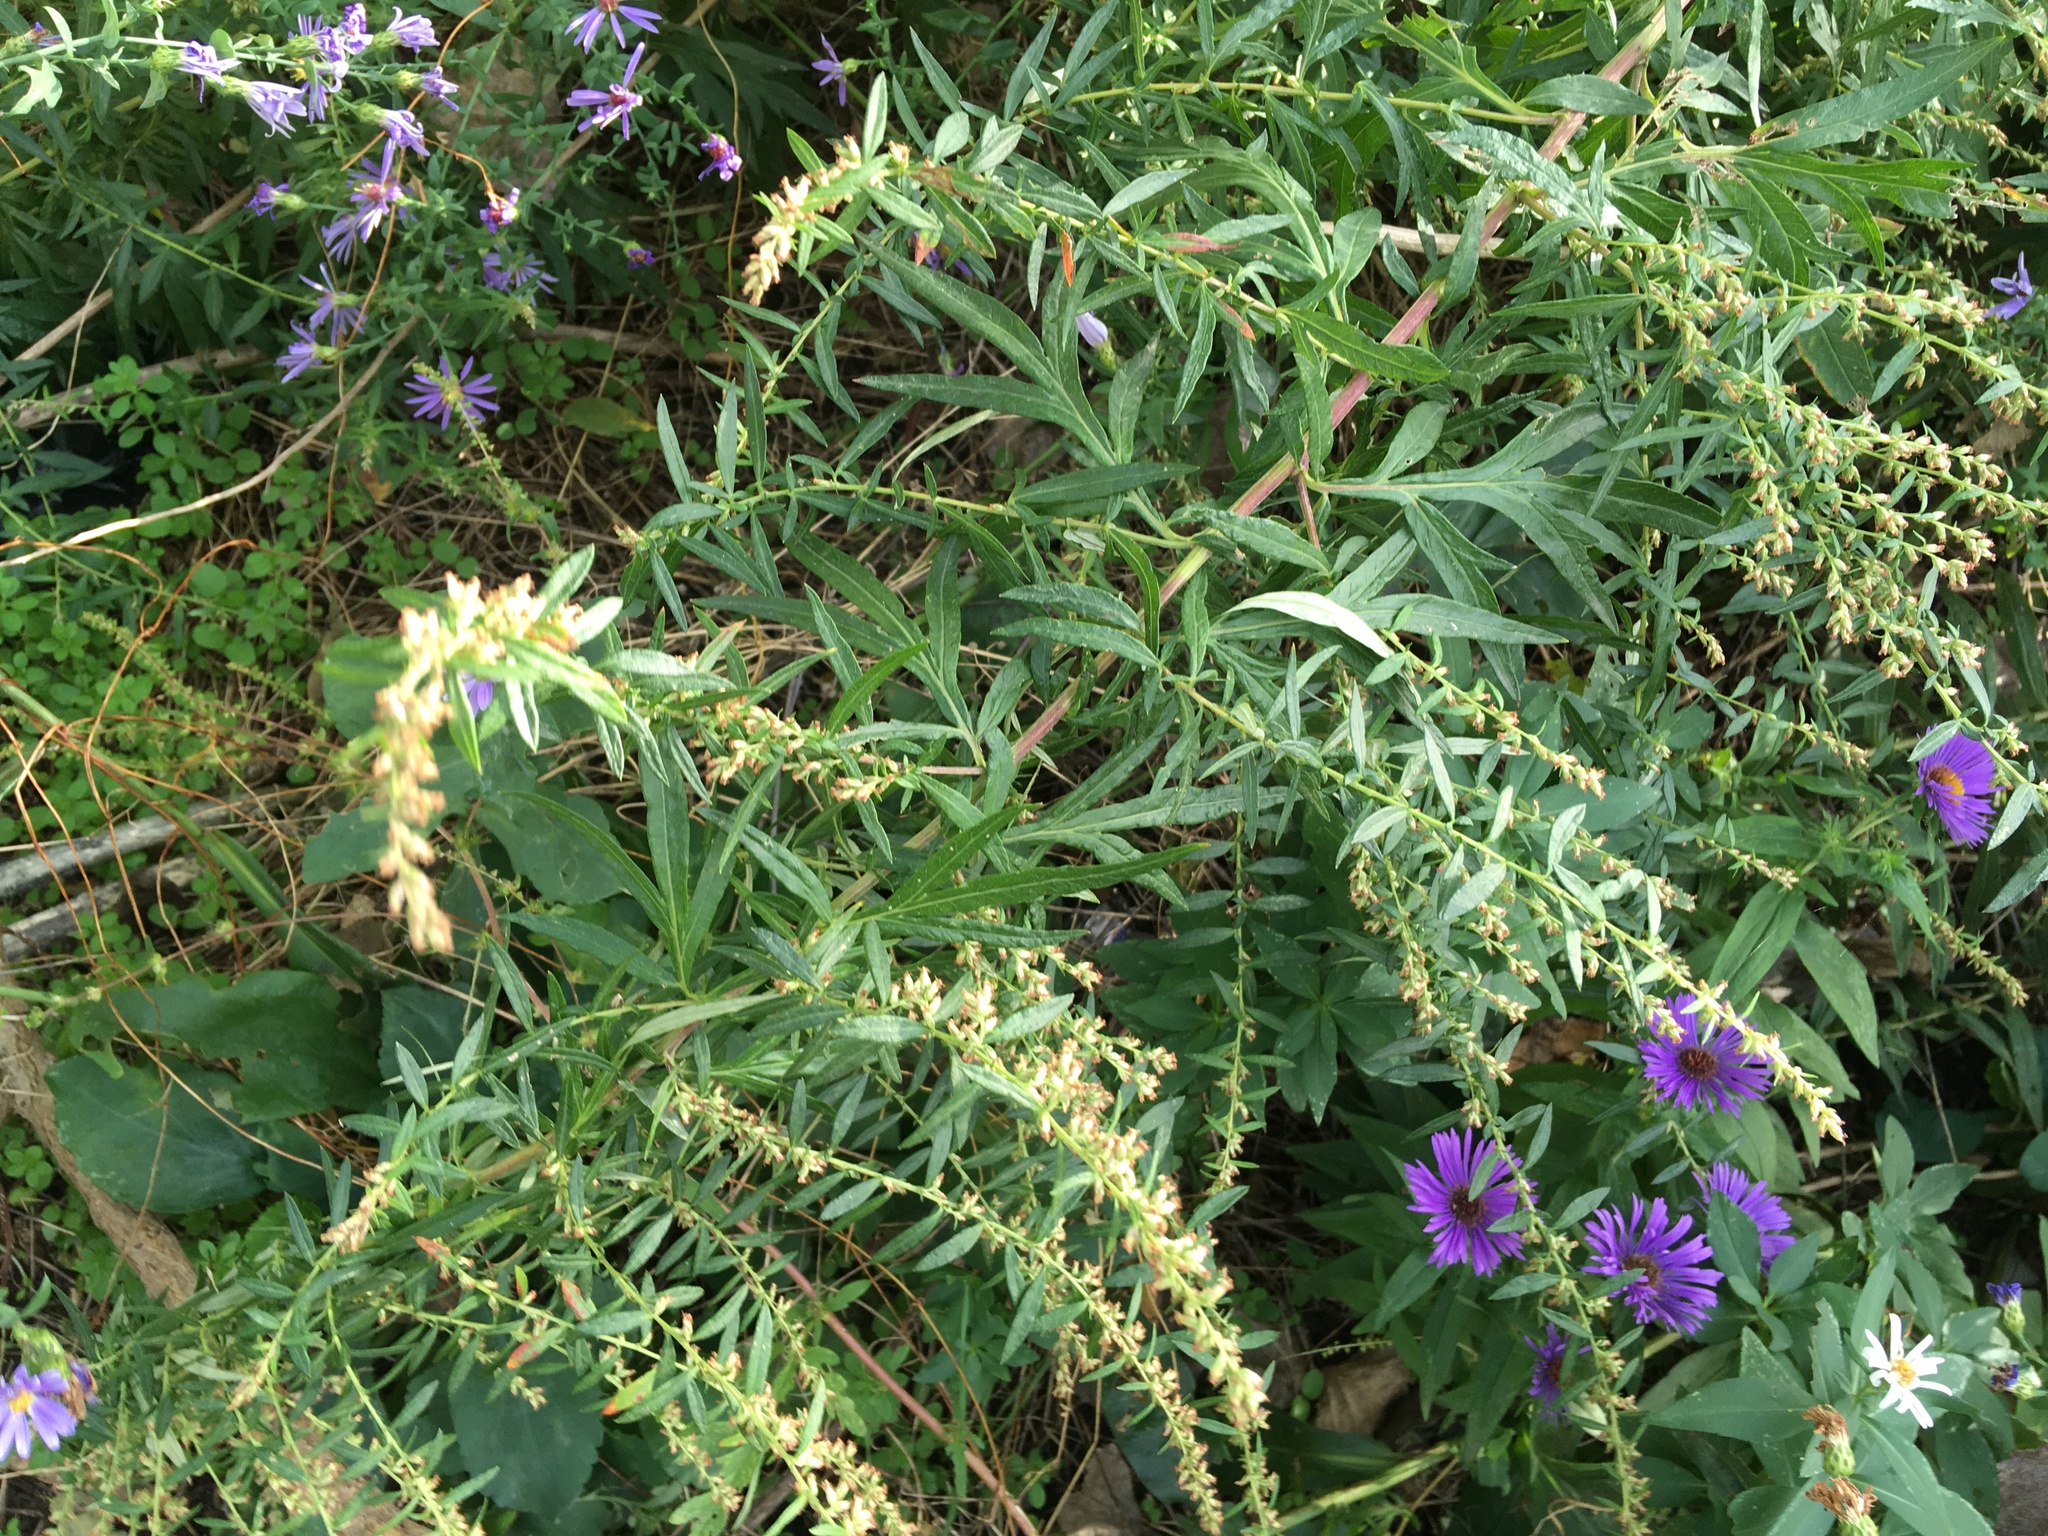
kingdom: Plantae
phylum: Tracheophyta
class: Magnoliopsida
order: Asterales
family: Asteraceae
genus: Artemisia
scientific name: Artemisia vulgaris
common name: Mugwort
